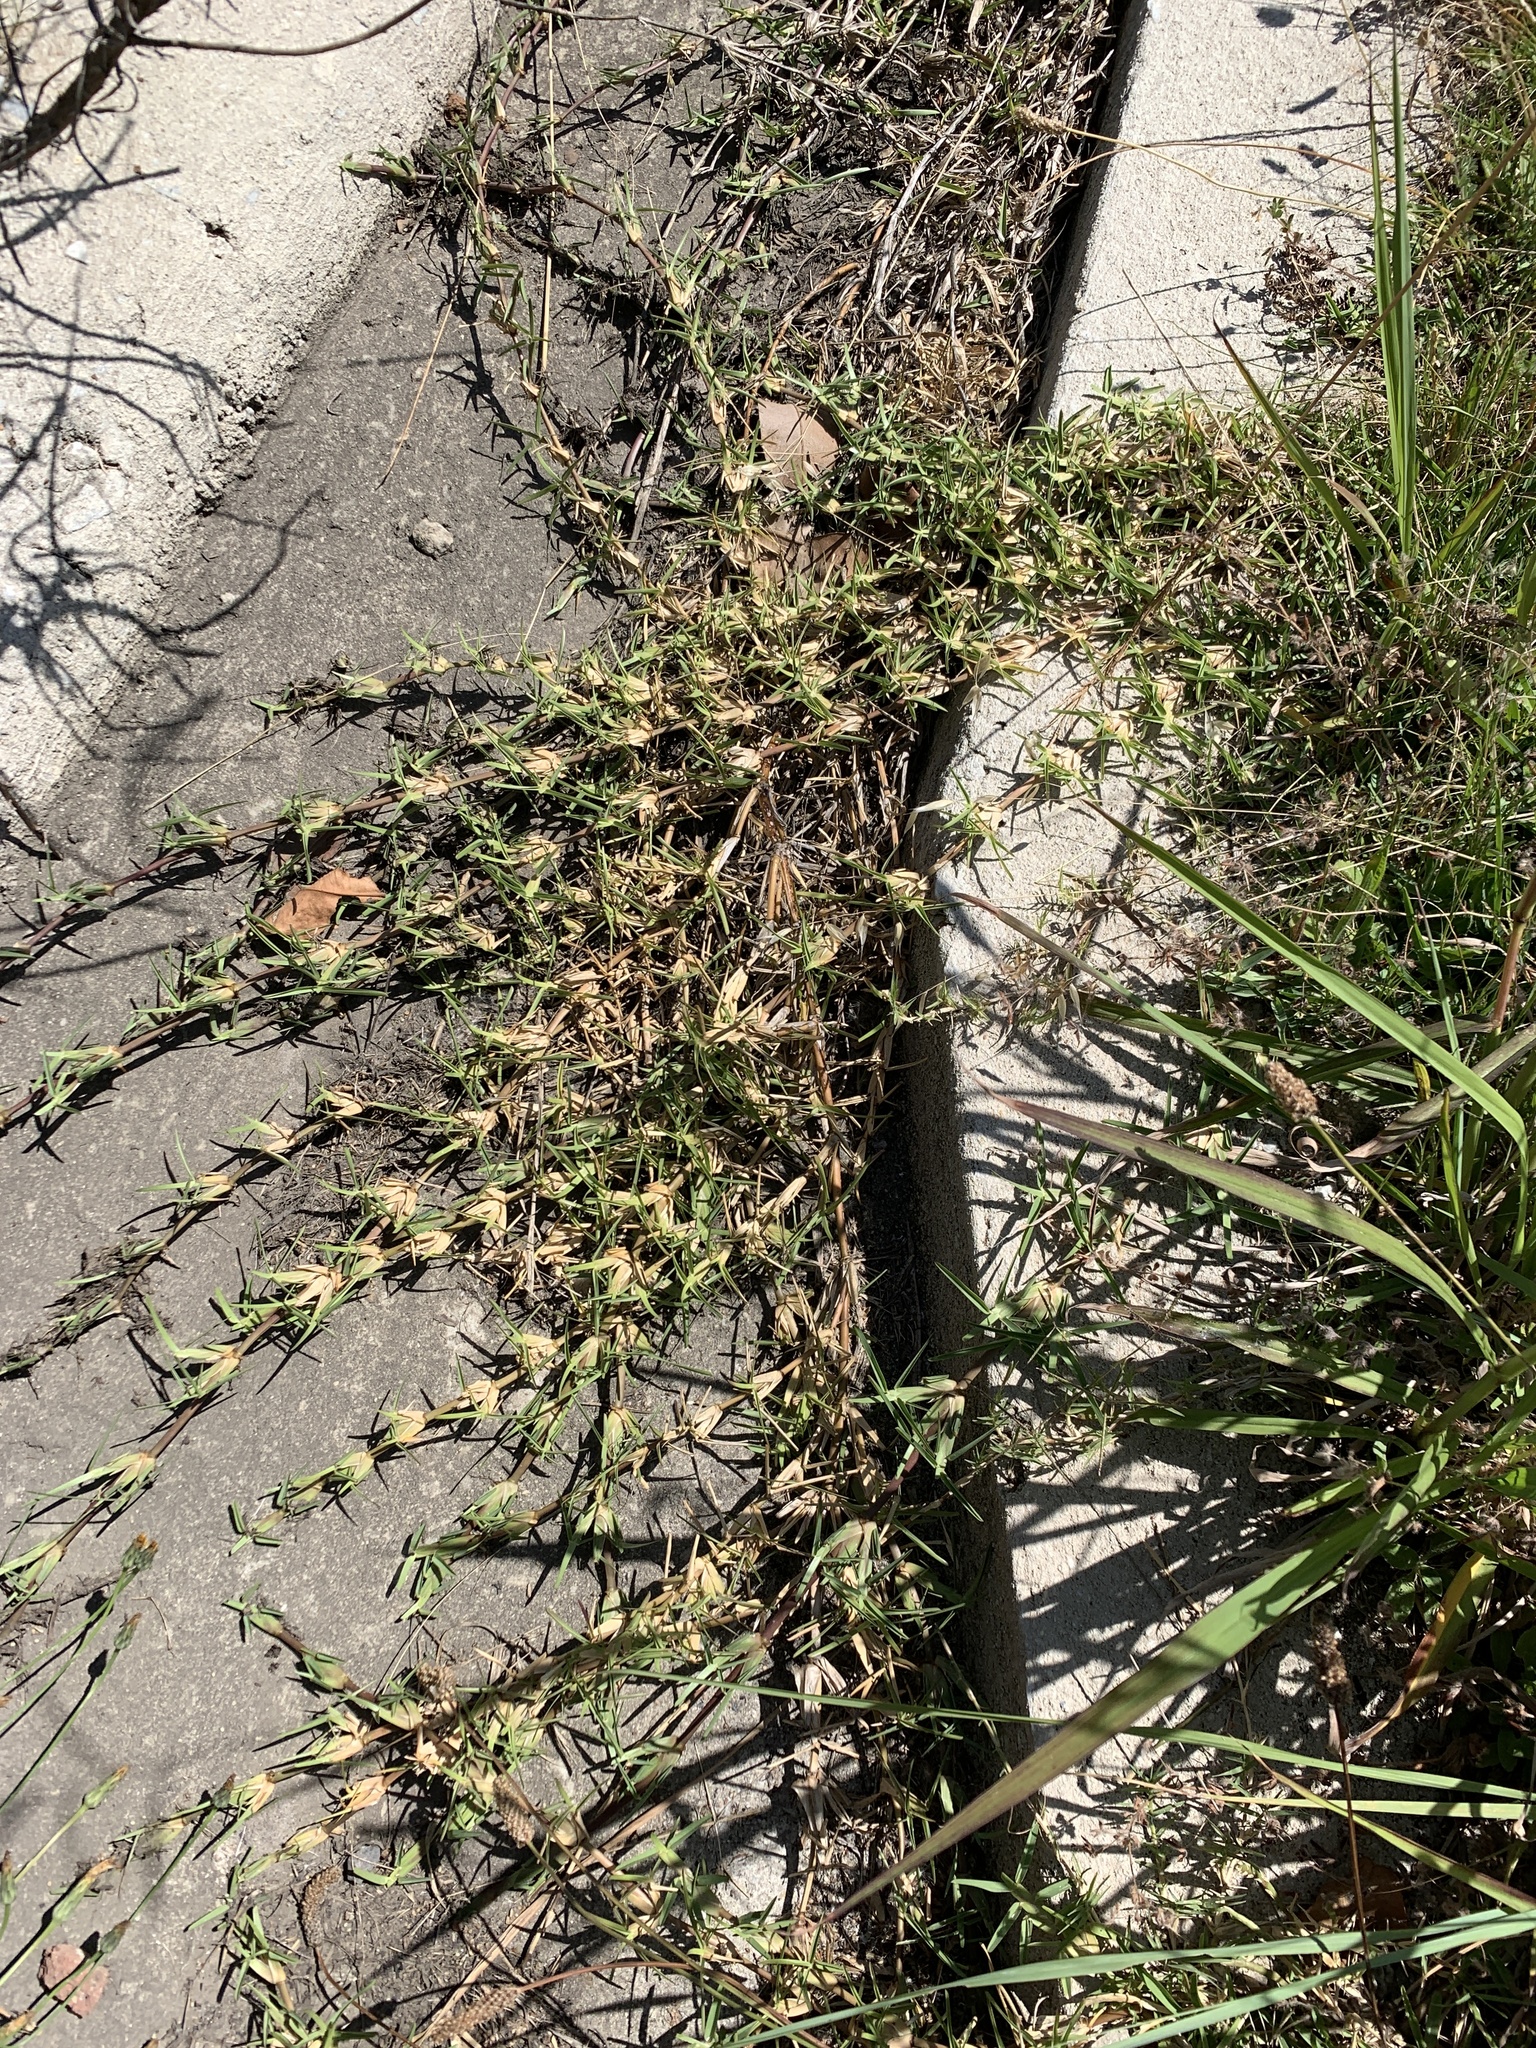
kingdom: Plantae
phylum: Tracheophyta
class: Liliopsida
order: Poales
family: Poaceae
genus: Stenotaphrum
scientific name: Stenotaphrum secundatum
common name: St. augustine grass
